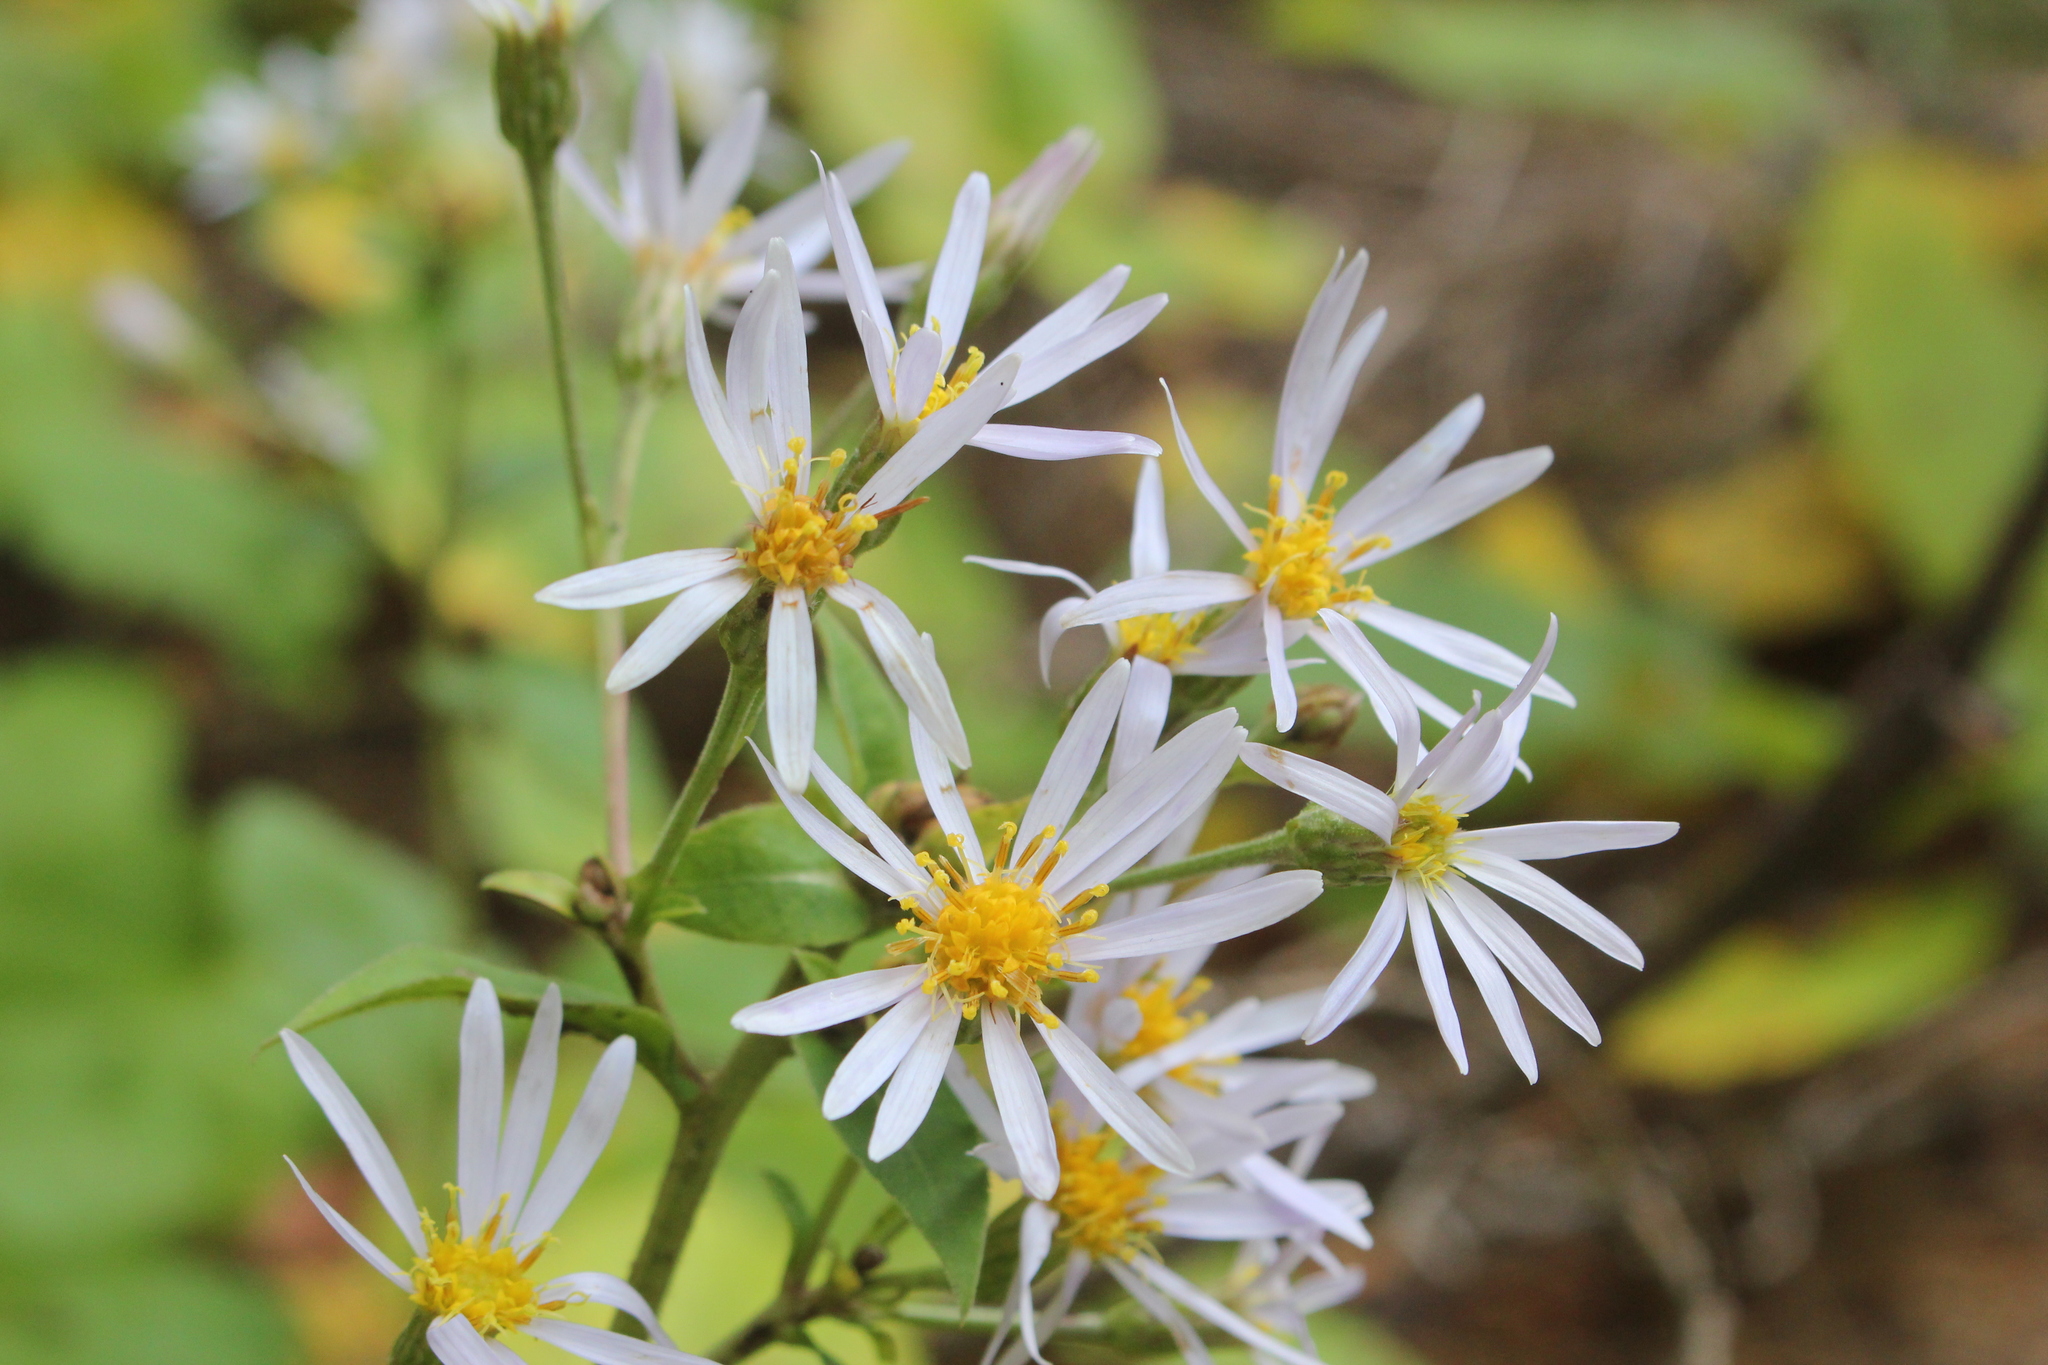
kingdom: Plantae
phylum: Tracheophyta
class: Magnoliopsida
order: Asterales
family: Asteraceae
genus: Eurybia
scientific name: Eurybia macrophylla
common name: Big-leaved aster
